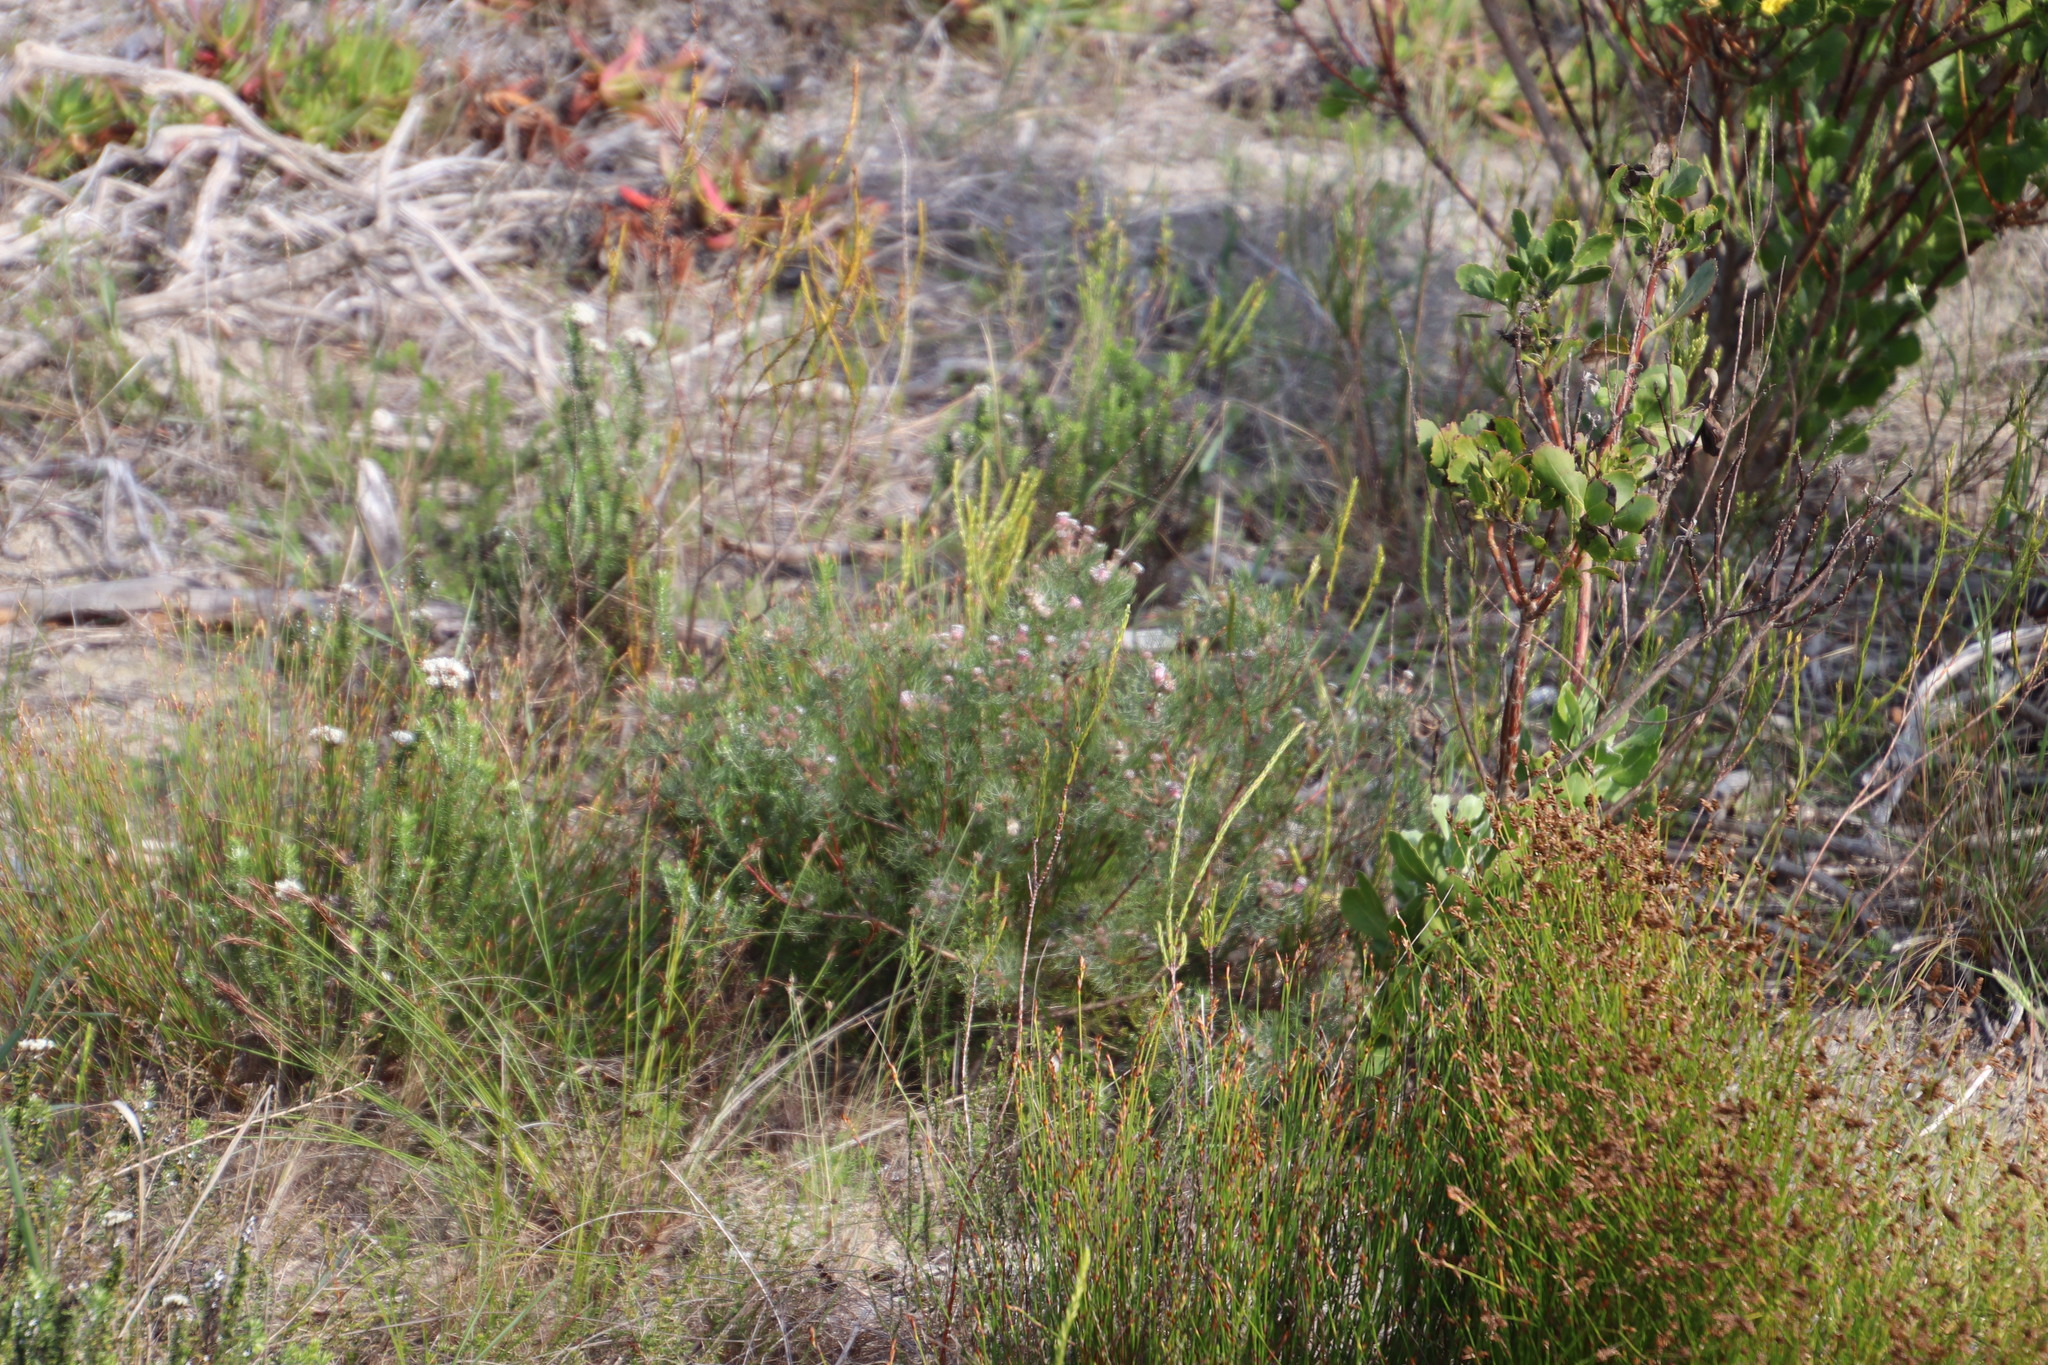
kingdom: Plantae
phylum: Tracheophyta
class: Magnoliopsida
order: Proteales
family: Proteaceae
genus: Serruria
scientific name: Serruria fasciflora
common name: Common pin spiderhead
